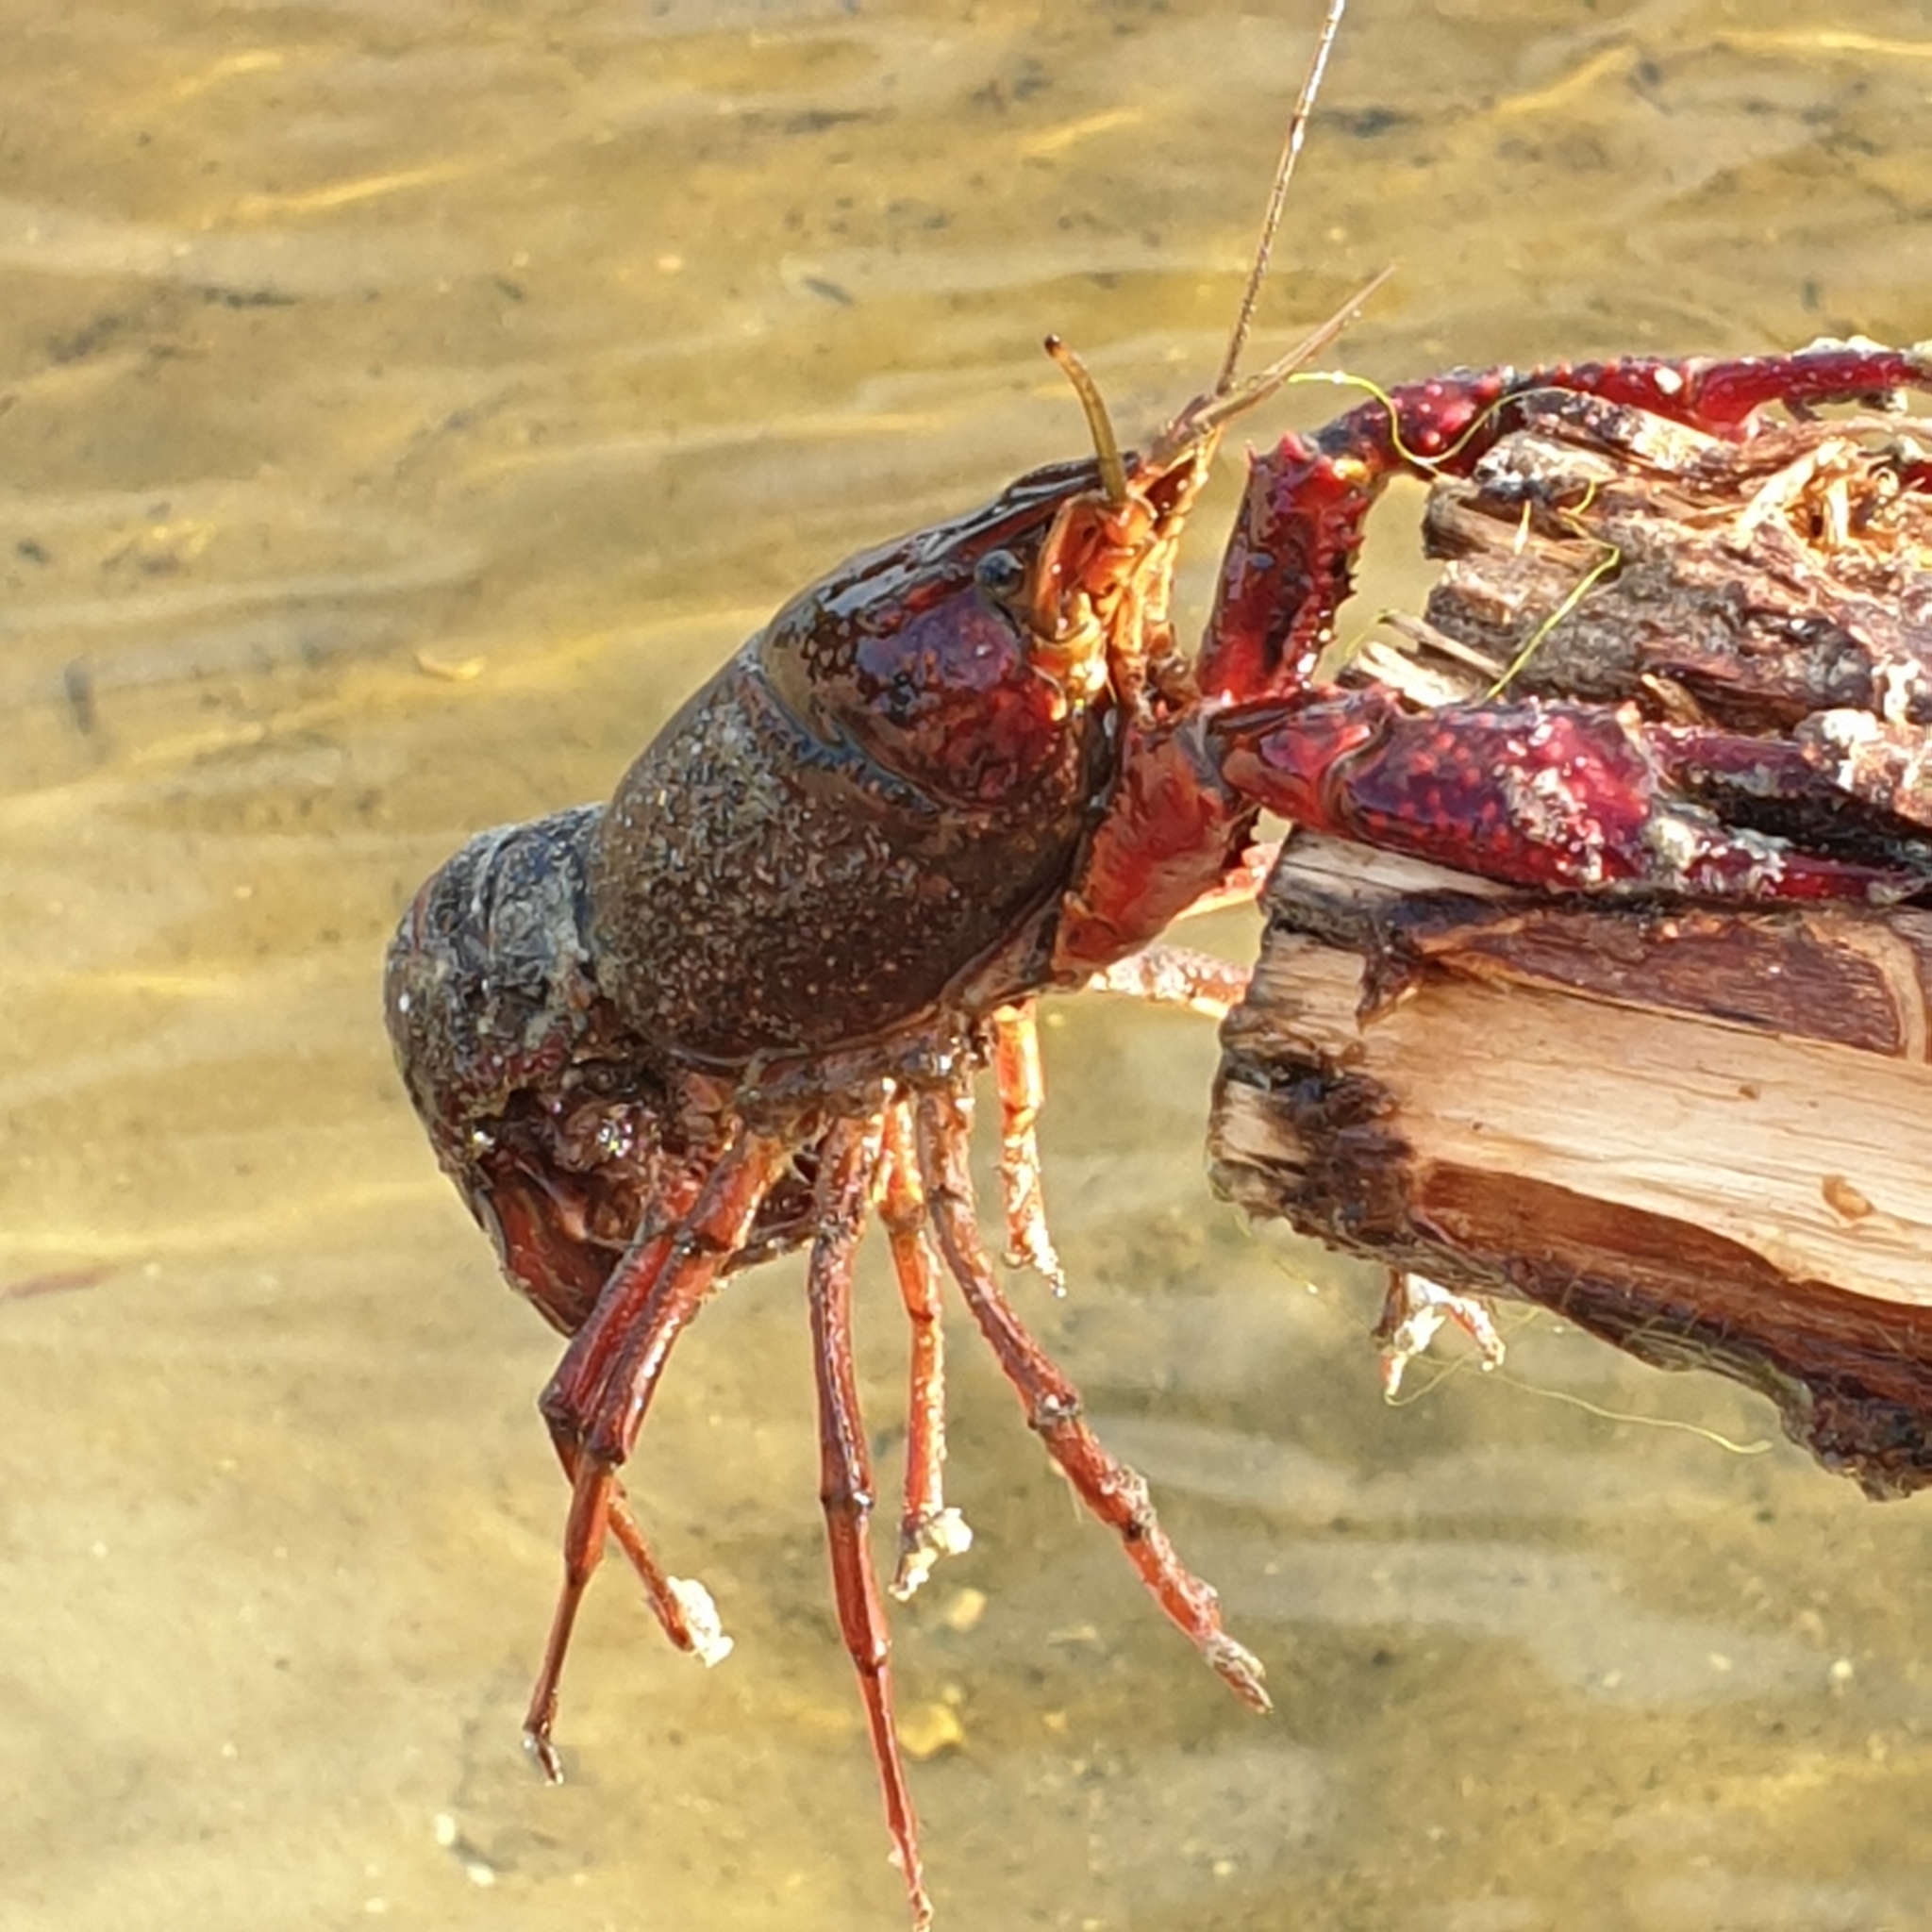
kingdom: Animalia
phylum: Arthropoda
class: Malacostraca
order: Decapoda
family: Cambaridae
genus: Procambarus
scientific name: Procambarus clarkii
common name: Red swamp crayfish
